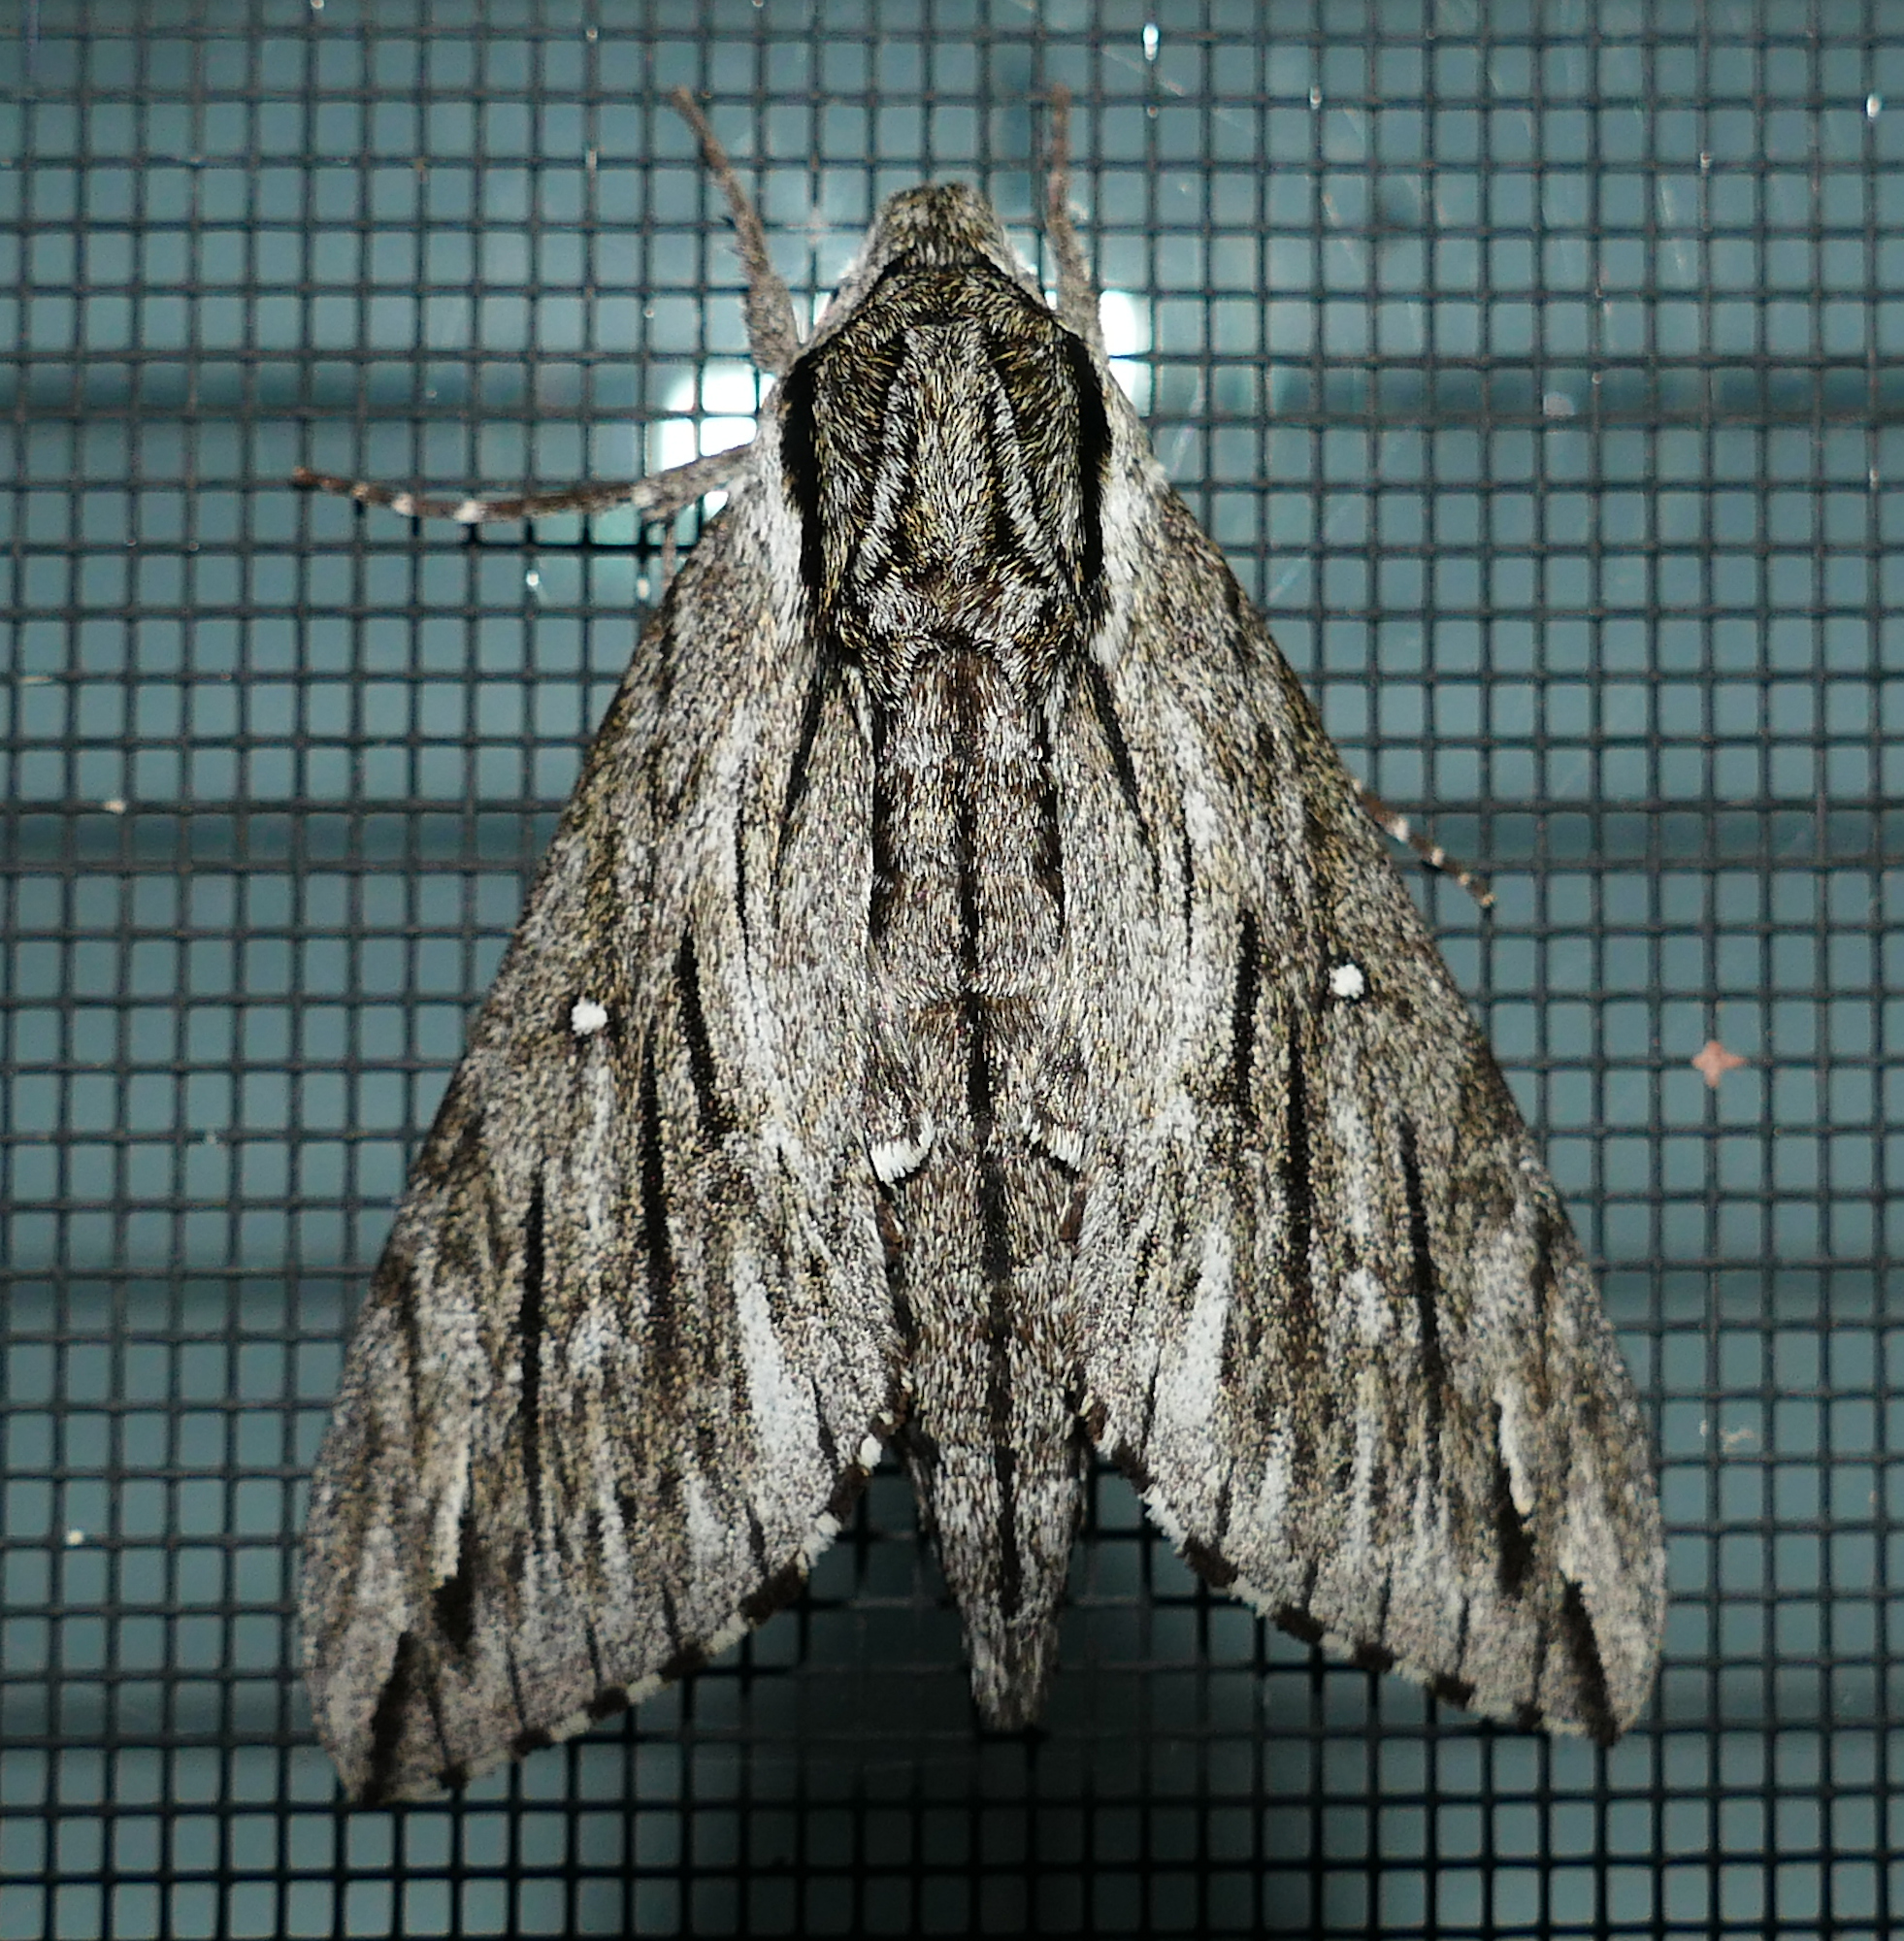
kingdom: Animalia
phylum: Arthropoda
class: Insecta
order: Lepidoptera
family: Sphingidae
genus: Paratrea
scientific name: Paratrea plebeja
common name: Plebian sphinx
